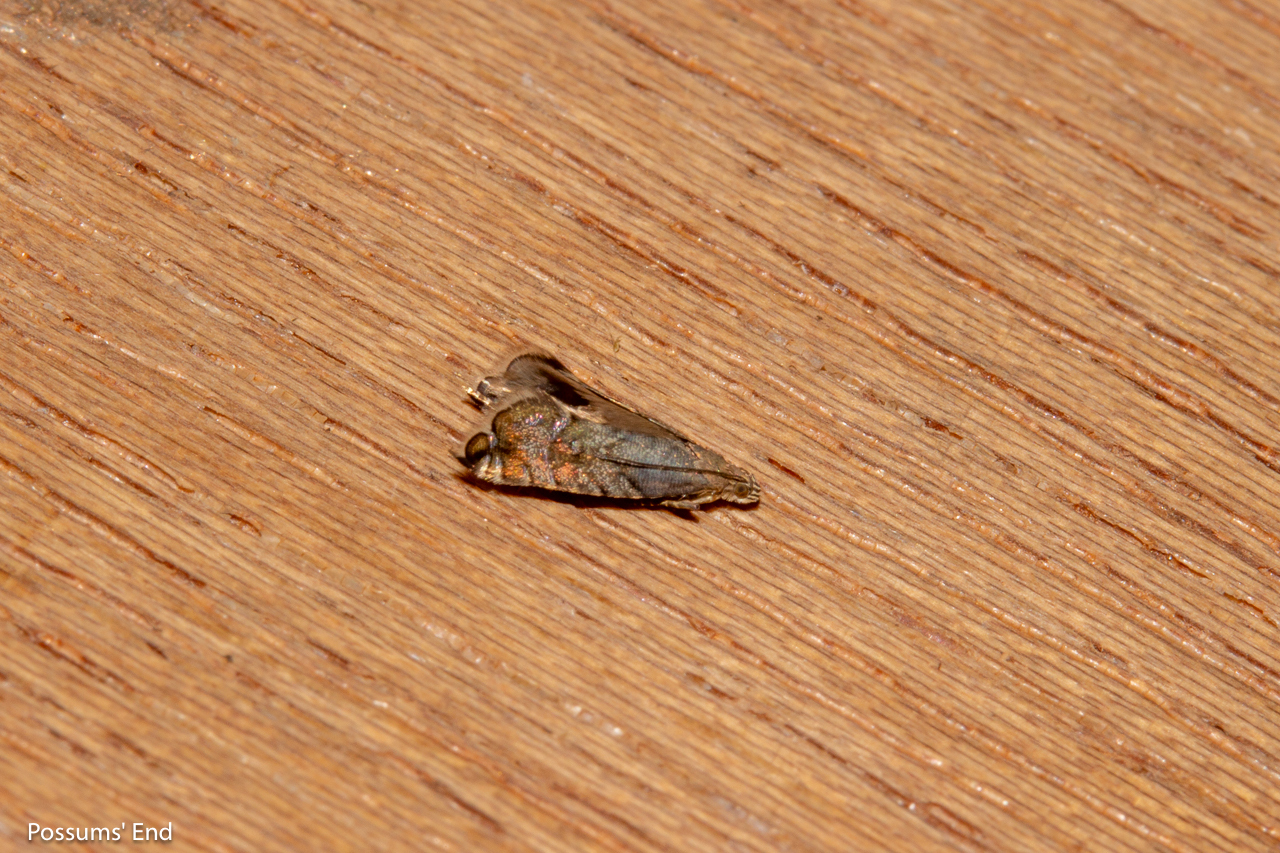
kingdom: Animalia
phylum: Arthropoda
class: Insecta
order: Lepidoptera
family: Glyphipterigidae
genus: Glyphipterix
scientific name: Glyphipterix nephoptera
